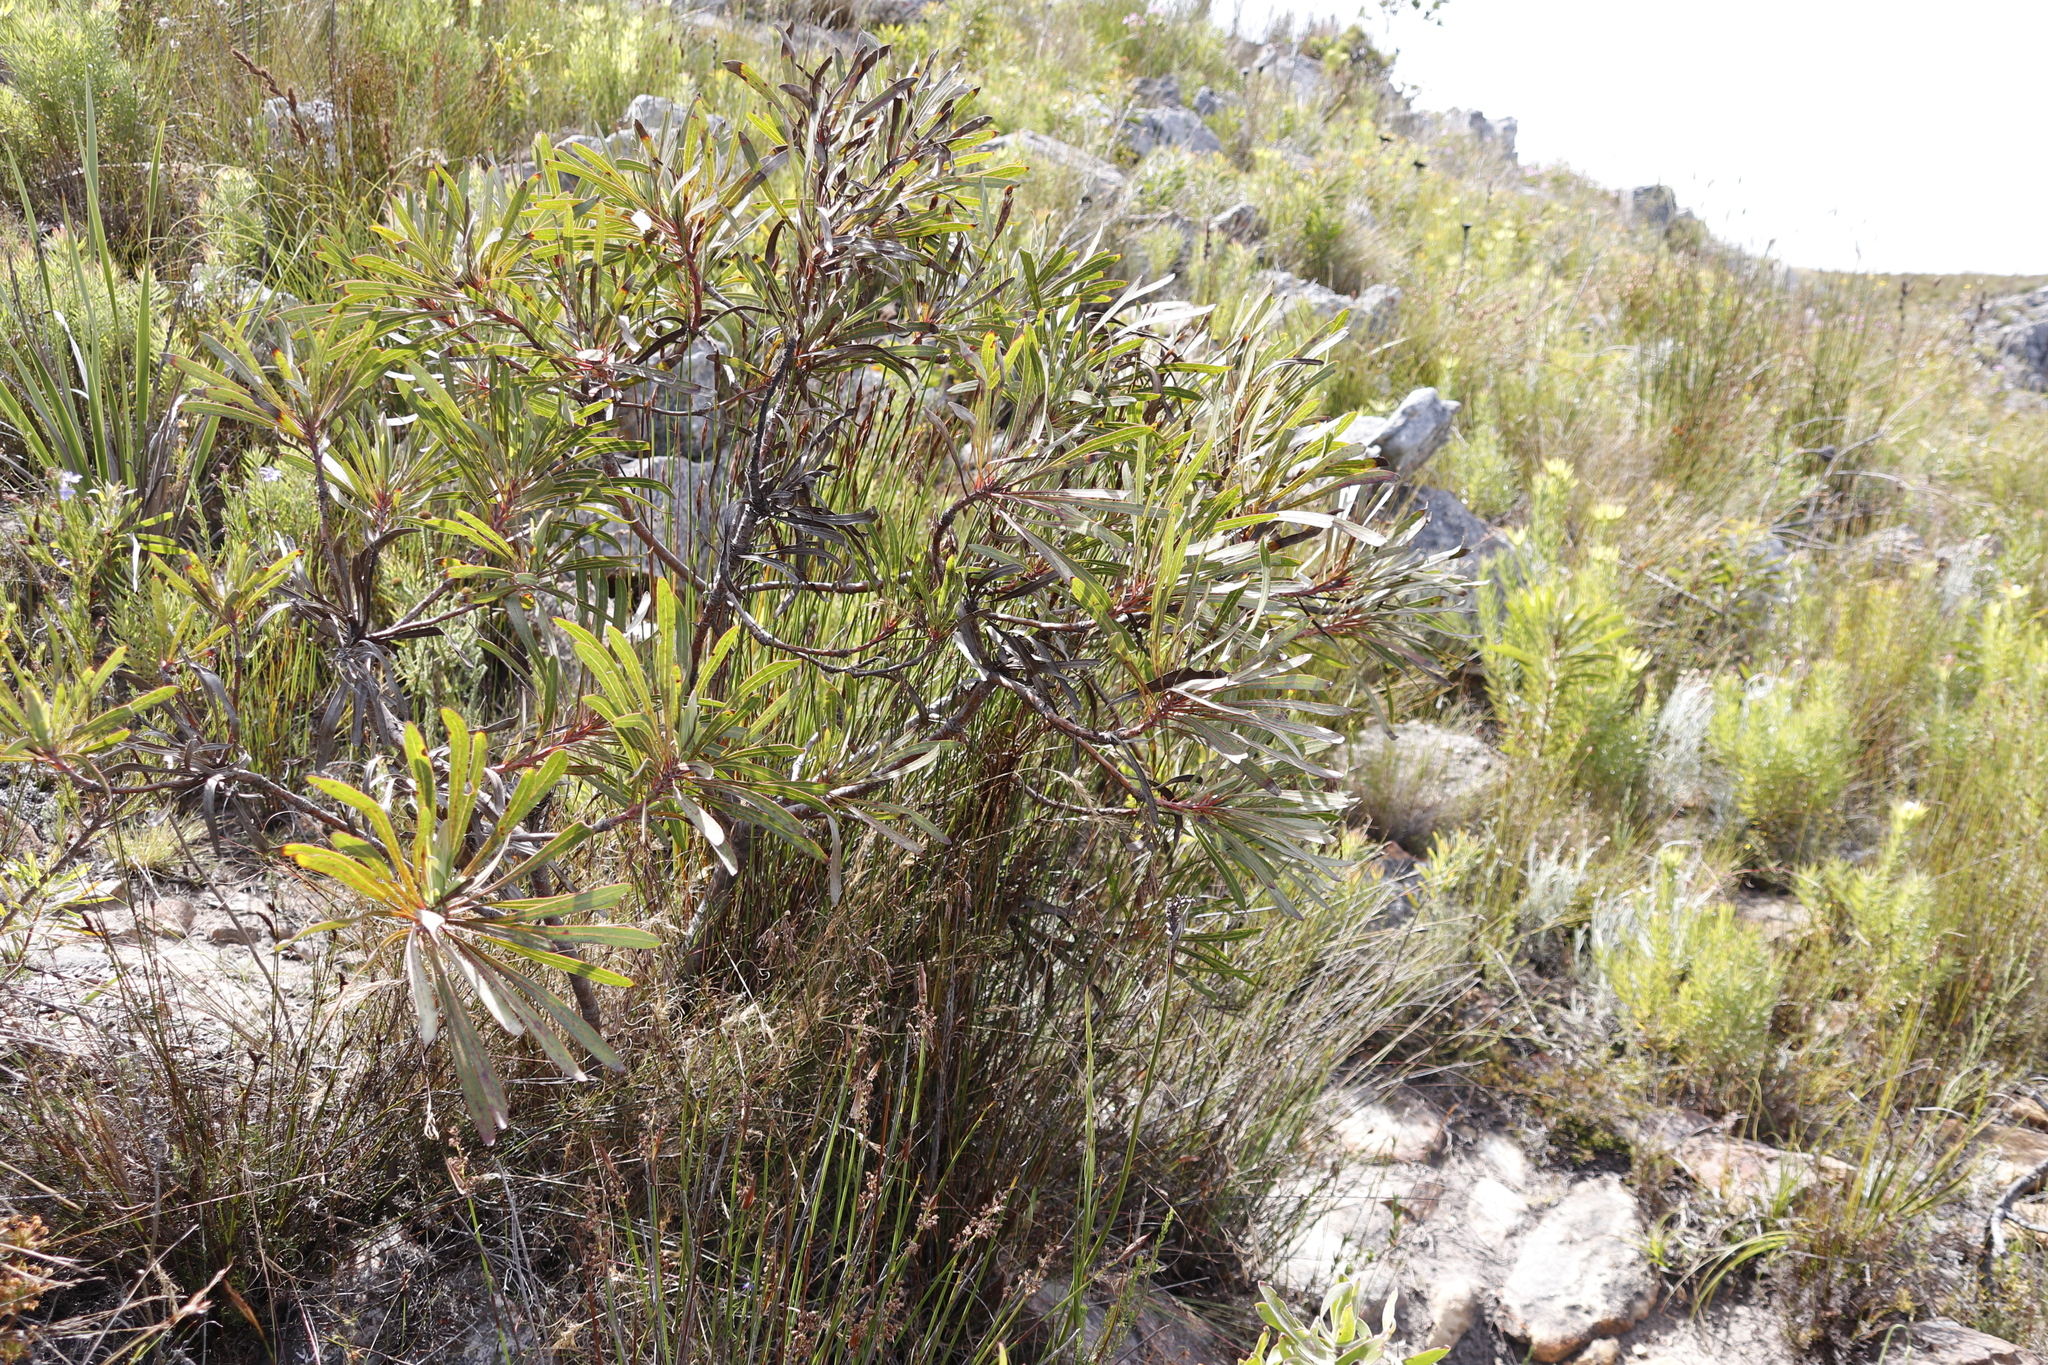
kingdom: Plantae
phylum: Tracheophyta
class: Magnoliopsida
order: Proteales
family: Proteaceae
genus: Protea
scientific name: Protea longifolia
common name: Long-leaf sugarbush
